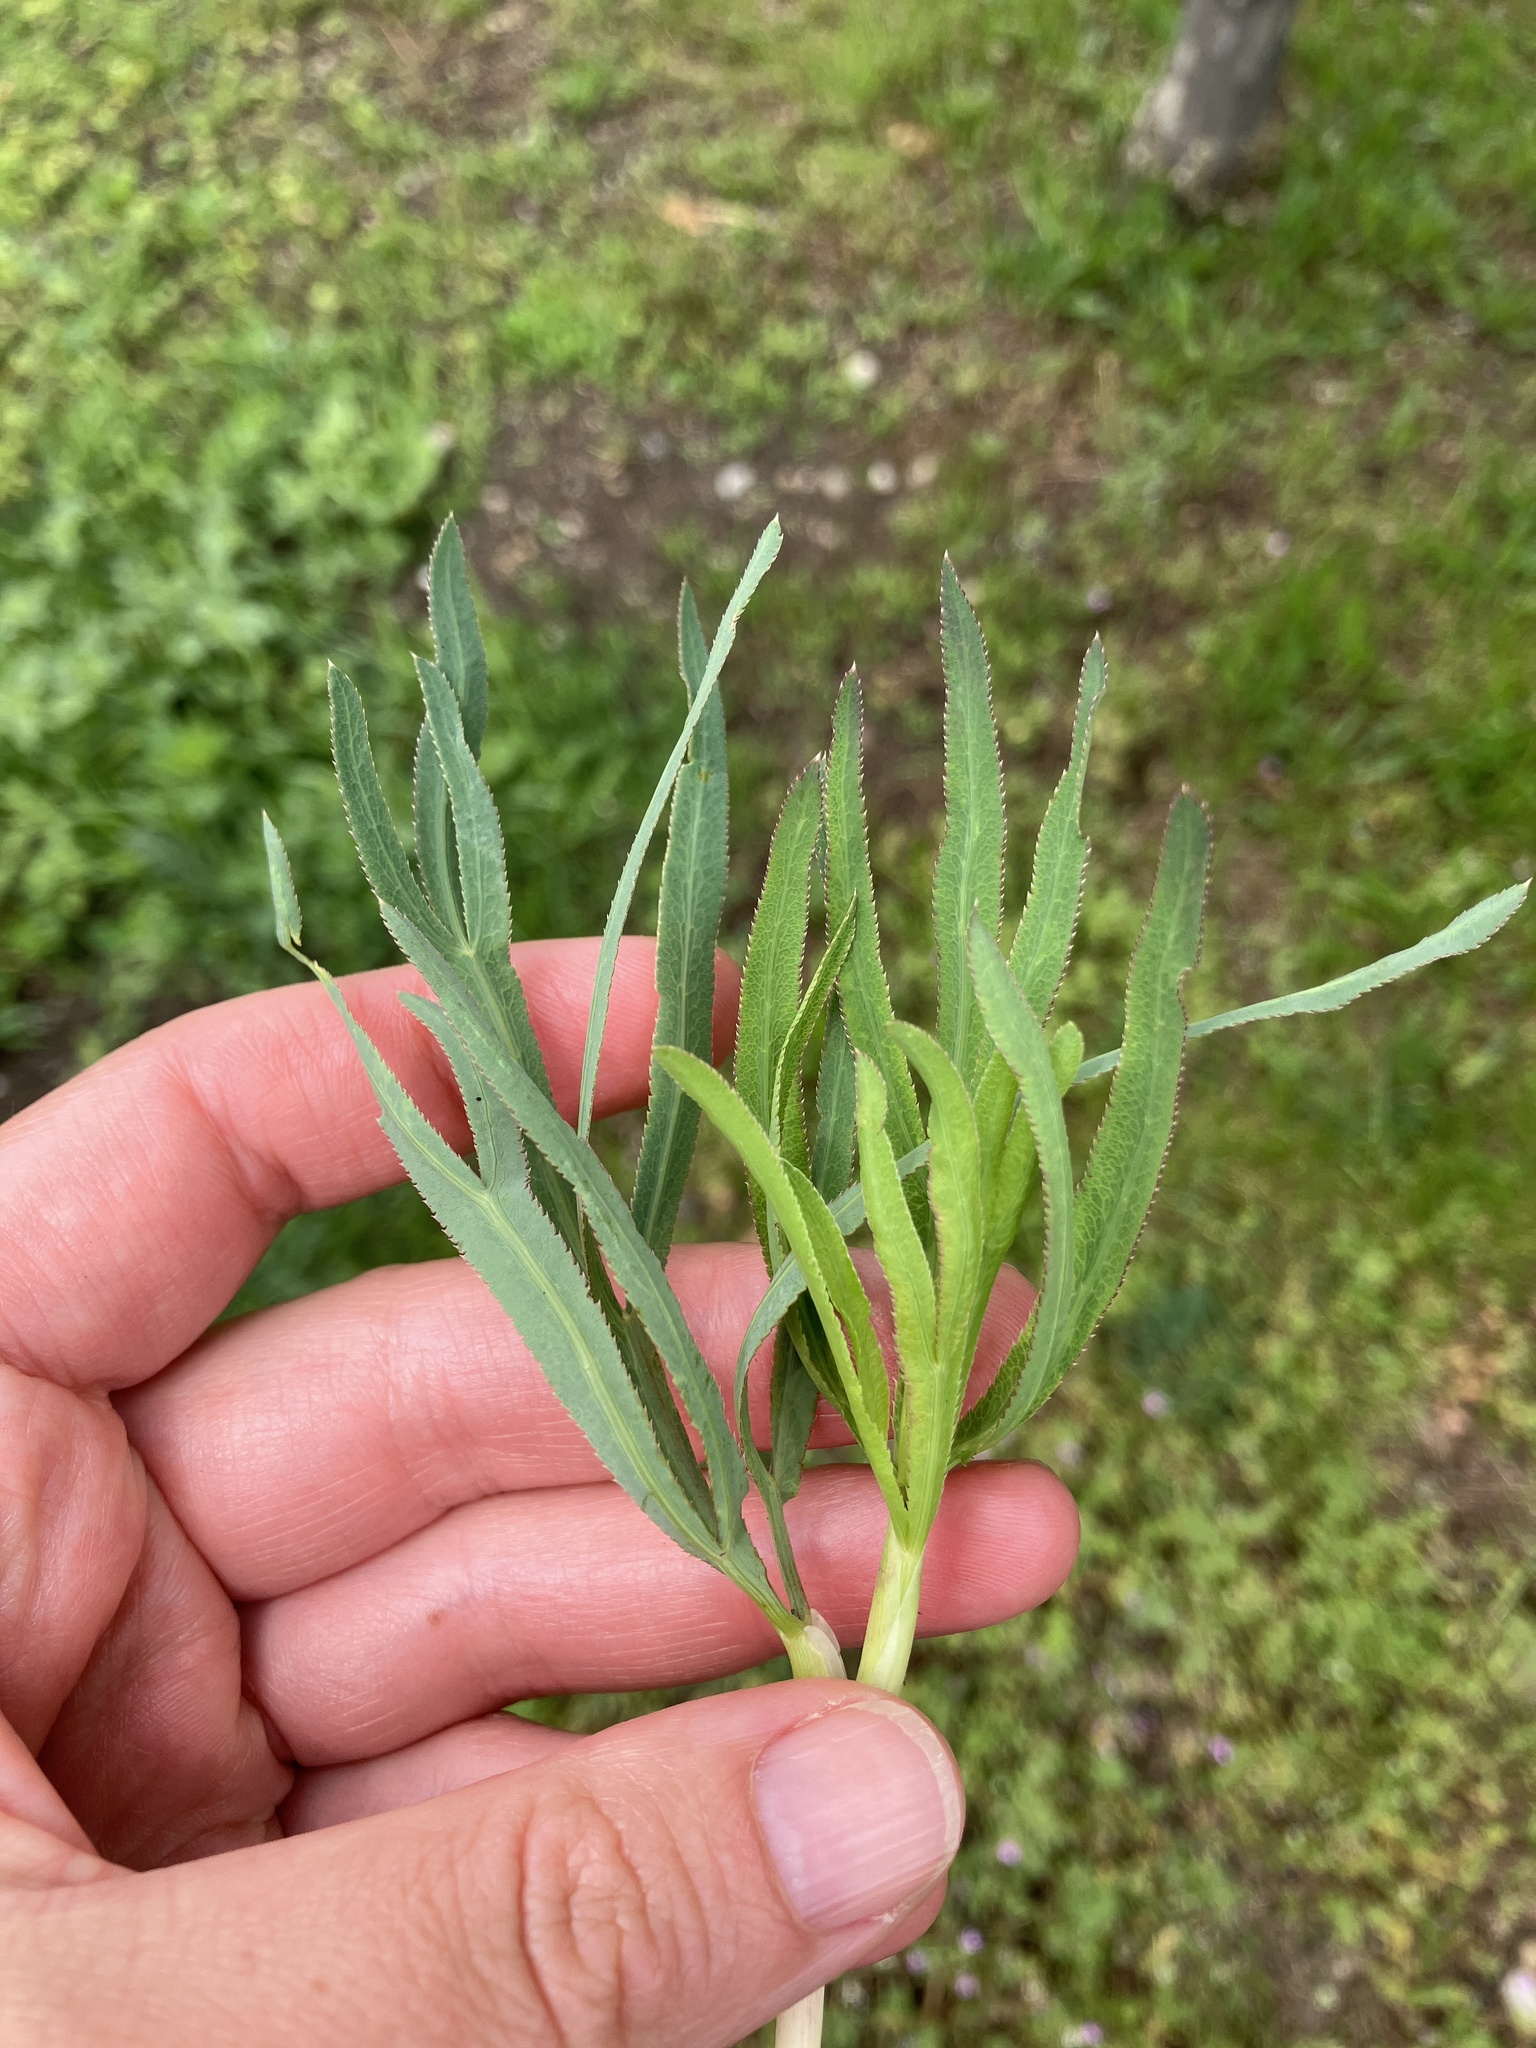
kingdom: Plantae
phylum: Tracheophyta
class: Magnoliopsida
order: Apiales
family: Apiaceae
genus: Falcaria
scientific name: Falcaria vulgaris
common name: Longleaf
